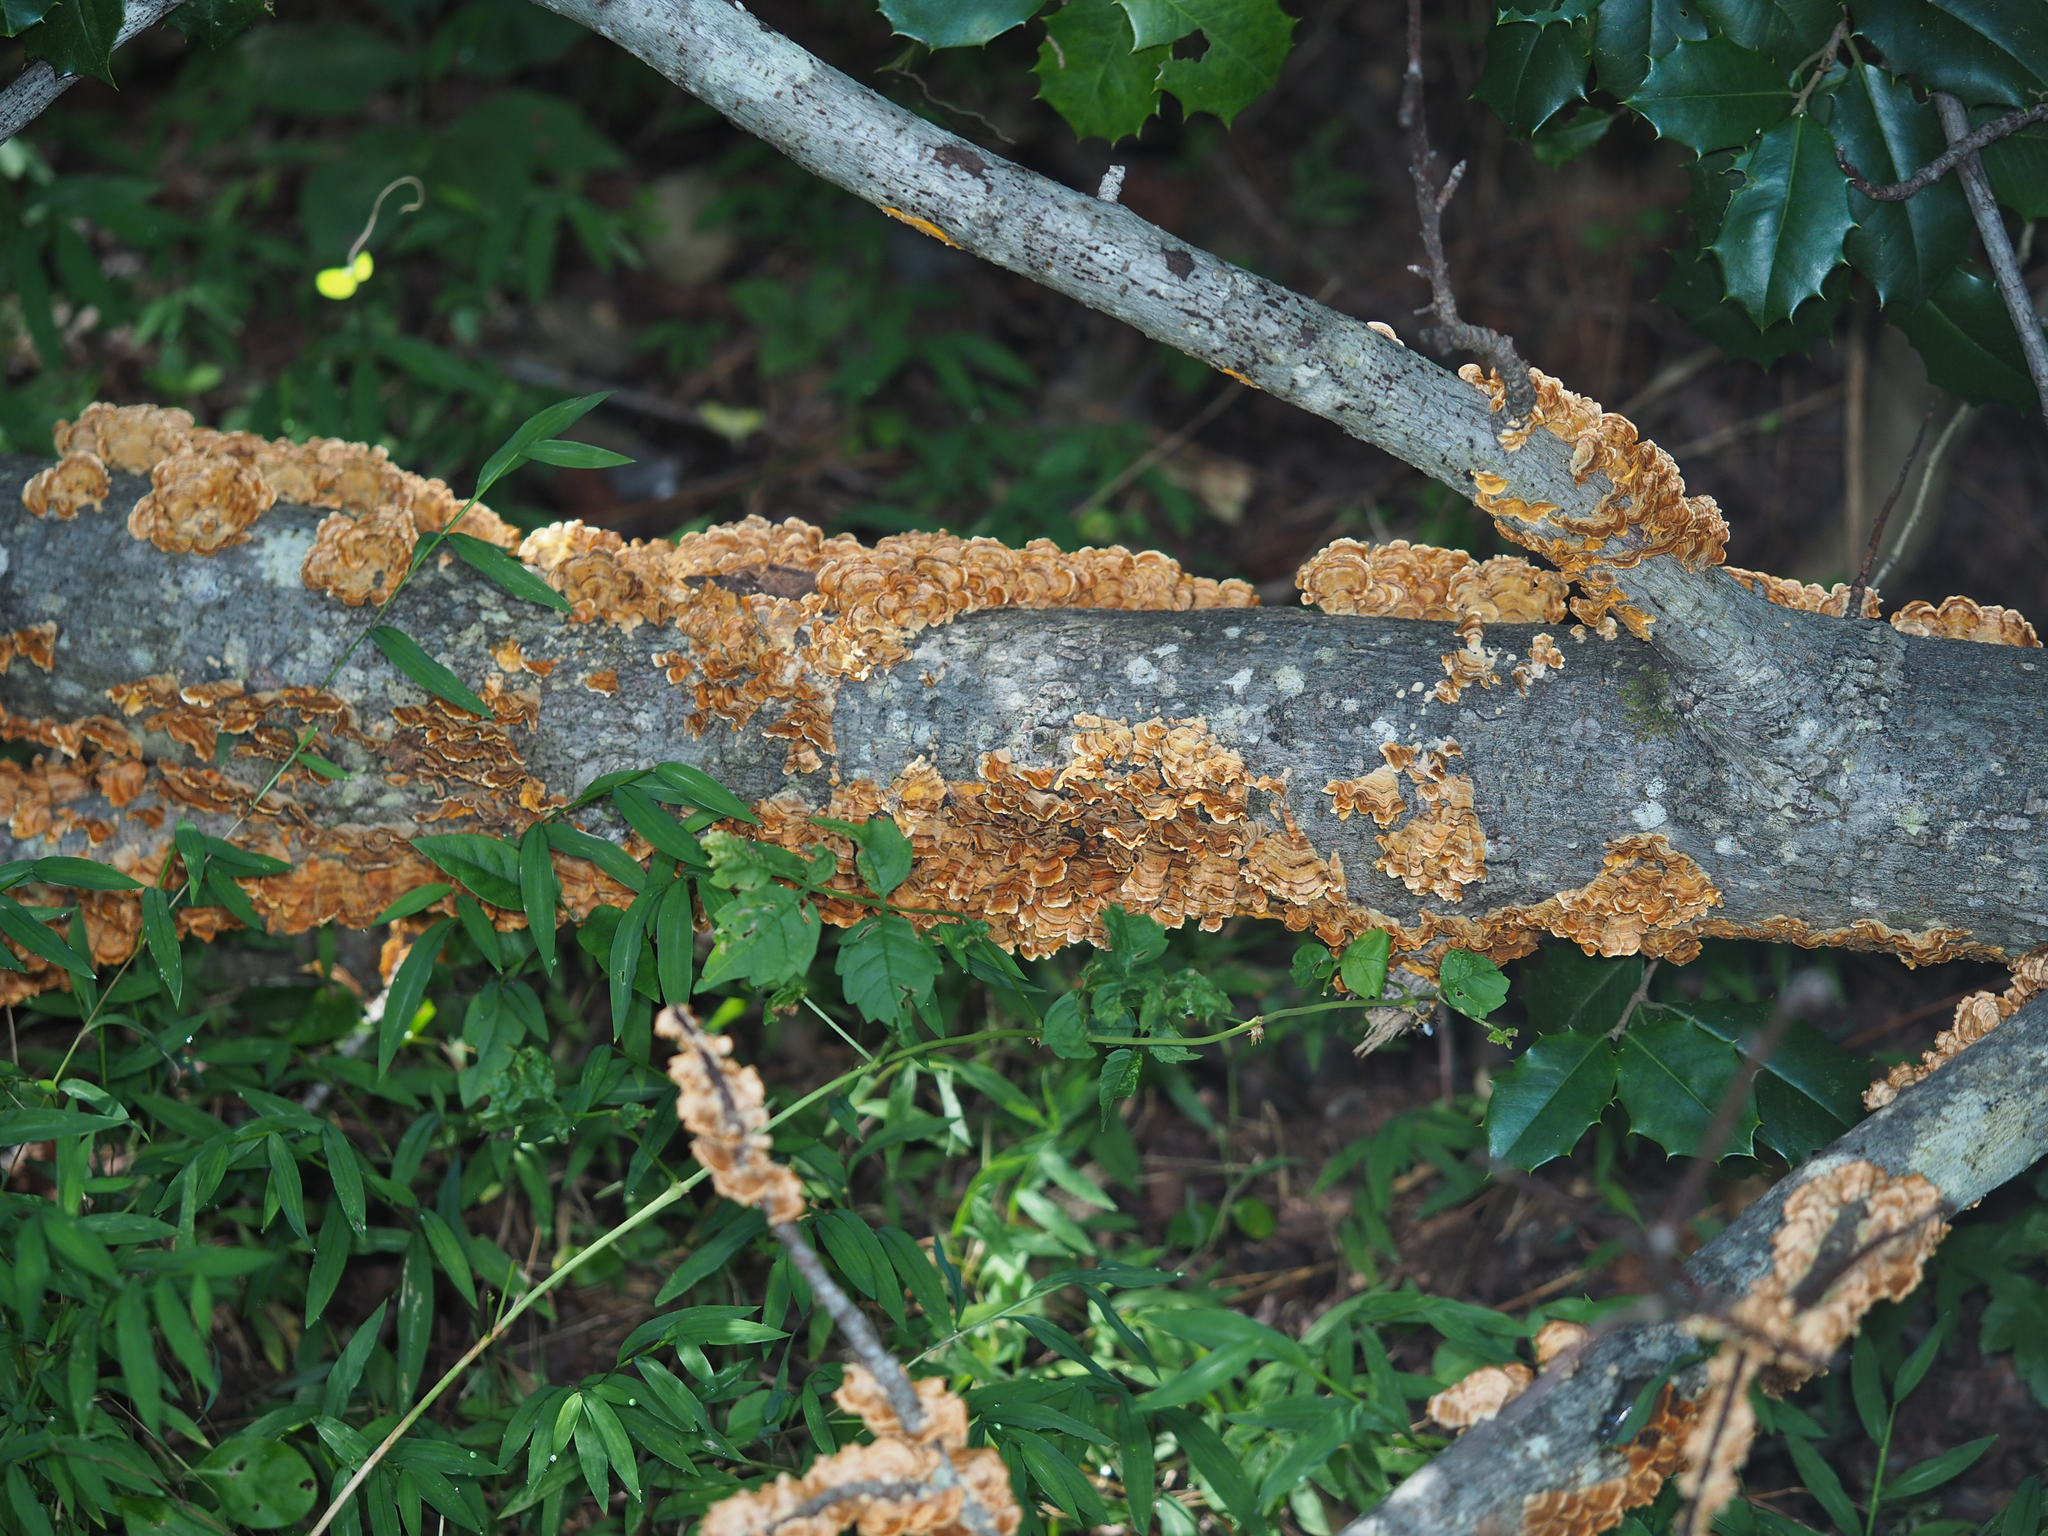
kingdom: Fungi
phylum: Basidiomycota
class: Agaricomycetes
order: Russulales
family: Stereaceae
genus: Stereum
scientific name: Stereum hirsutum
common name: Hairy curtain crust
